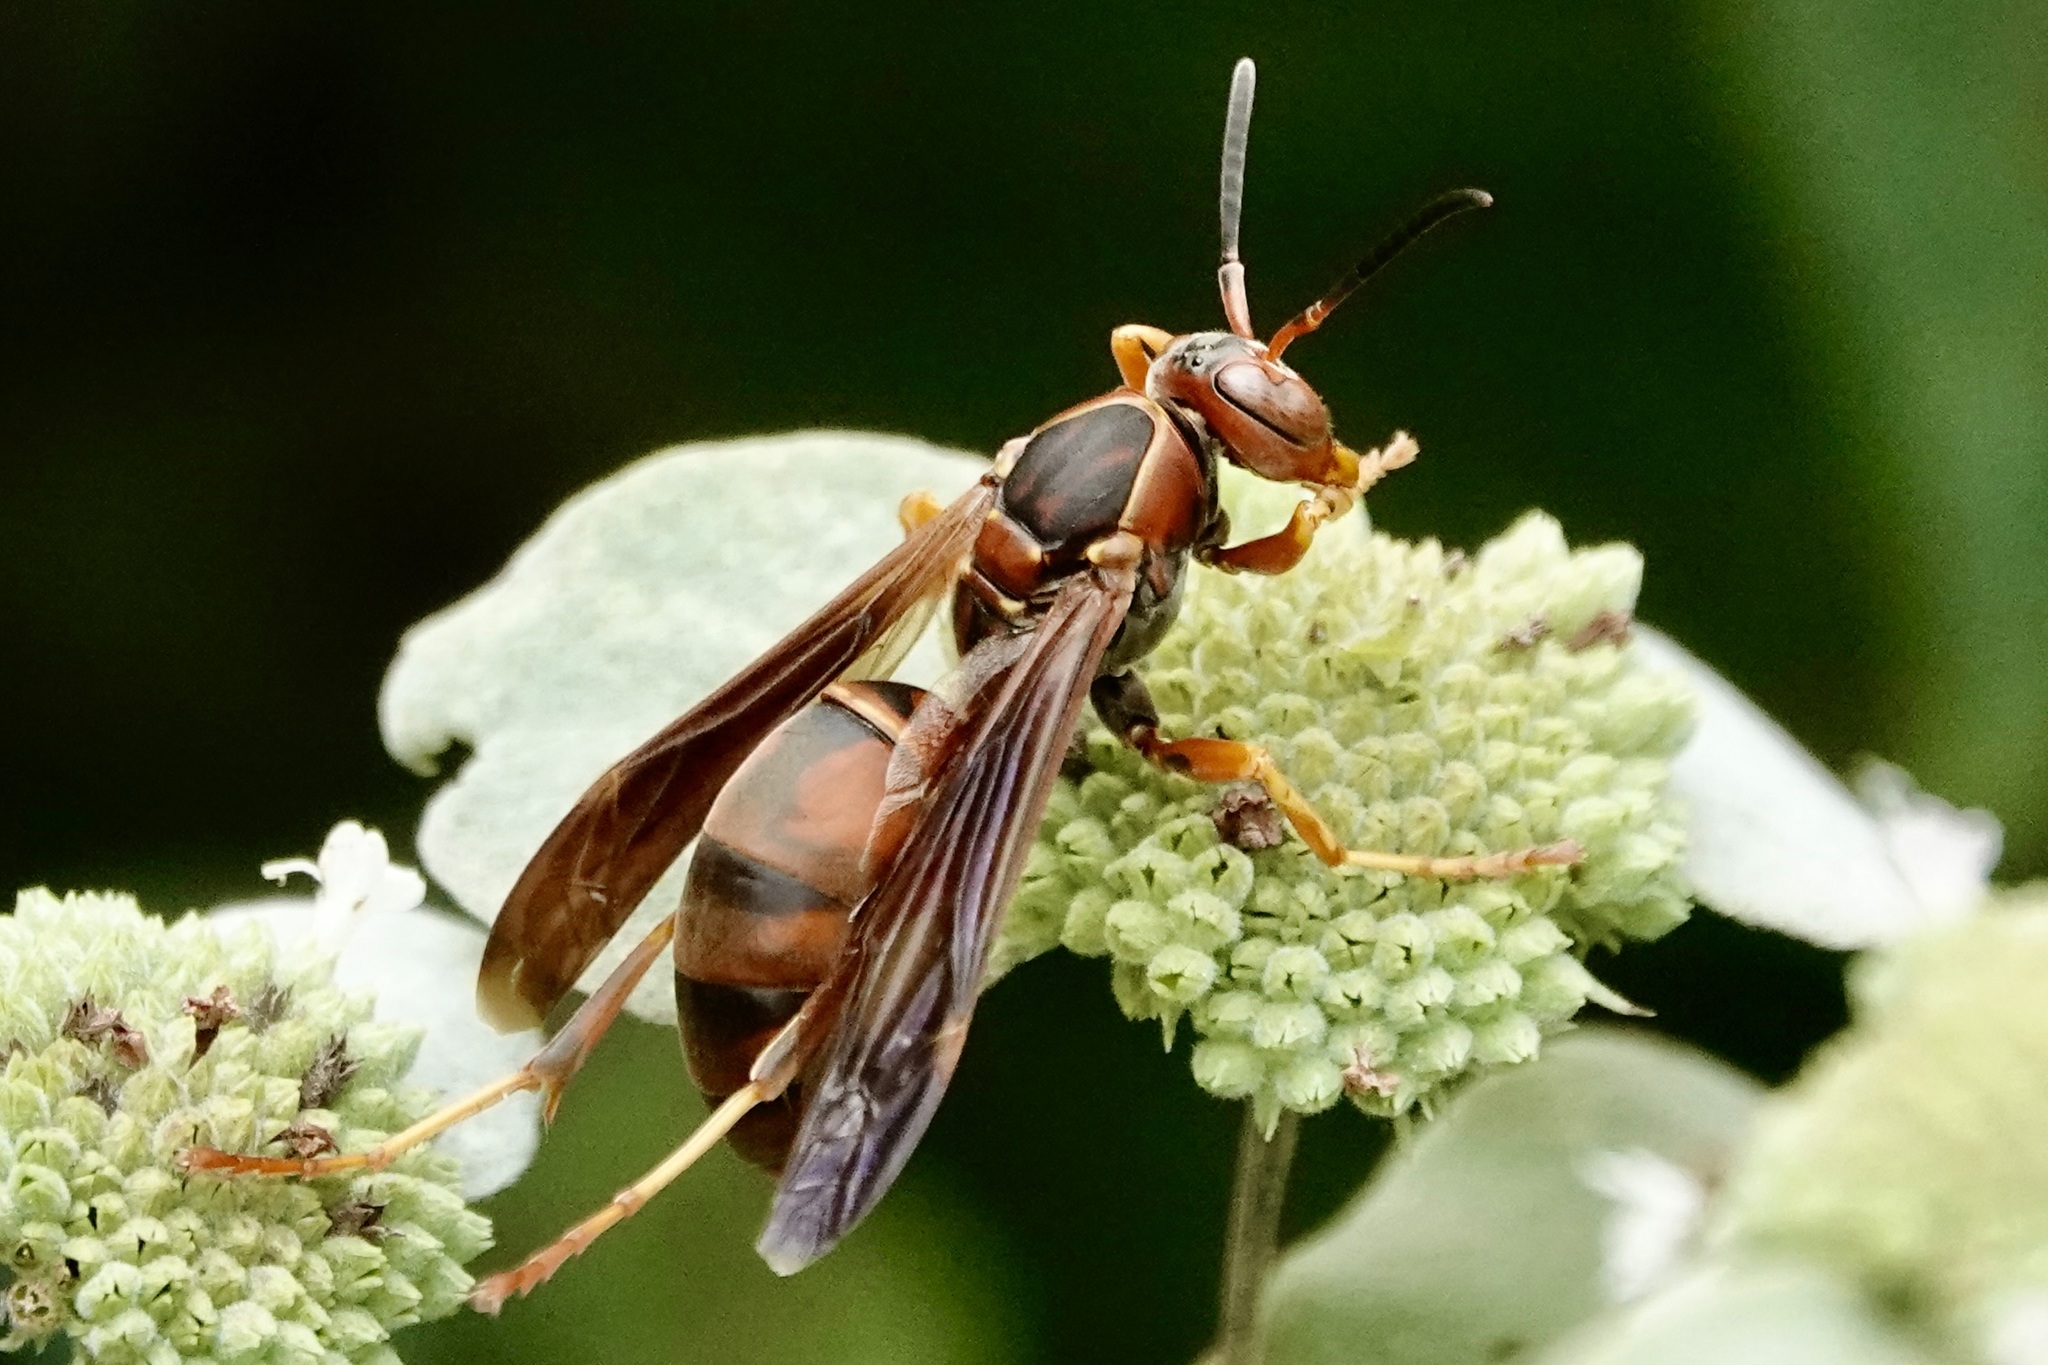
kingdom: Animalia
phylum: Arthropoda
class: Insecta
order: Hymenoptera
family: Eumenidae
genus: Polistes
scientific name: Polistes fuscatus
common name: Dark paper wasp
